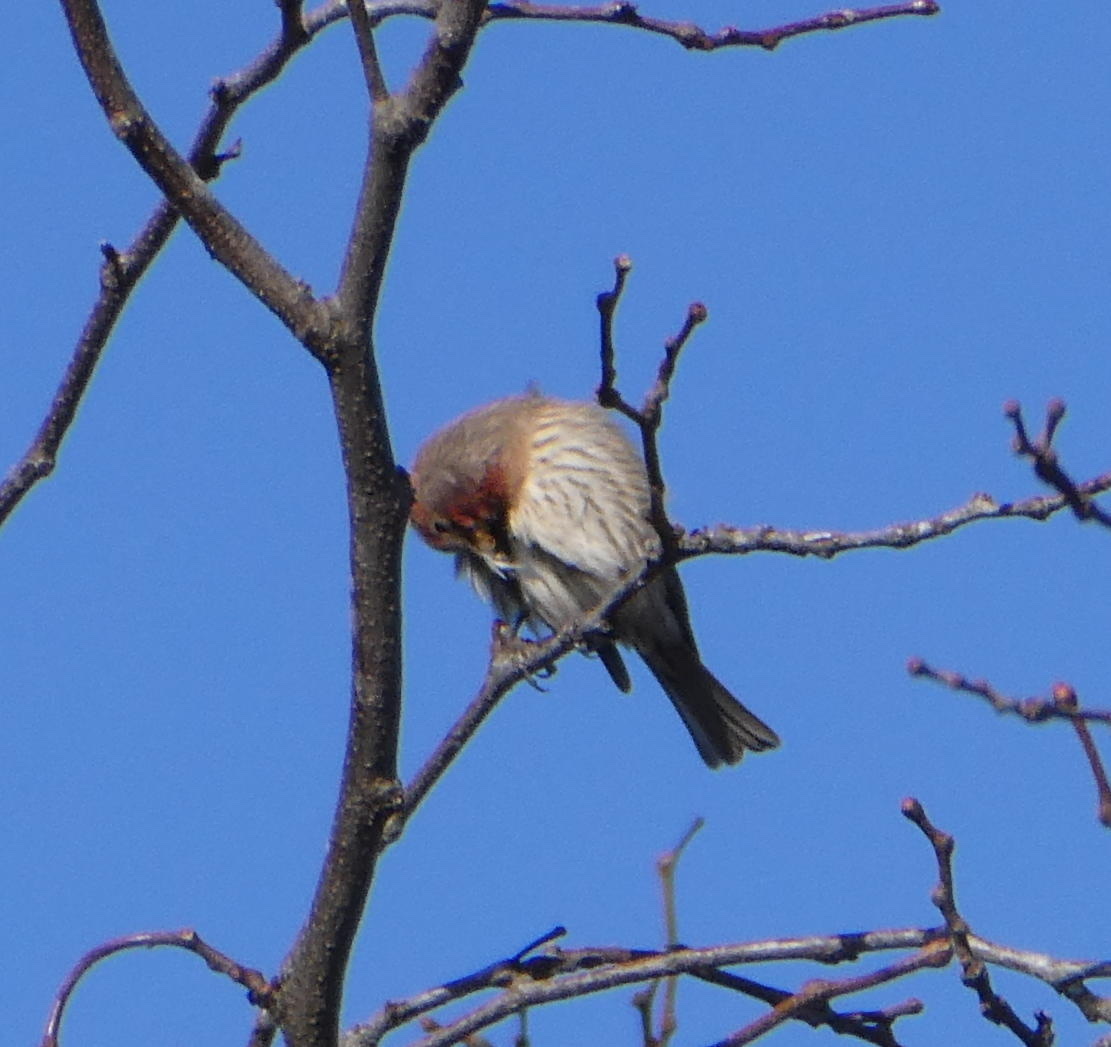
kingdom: Animalia
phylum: Chordata
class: Aves
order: Passeriformes
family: Fringillidae
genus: Haemorhous
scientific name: Haemorhous mexicanus
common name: House finch
